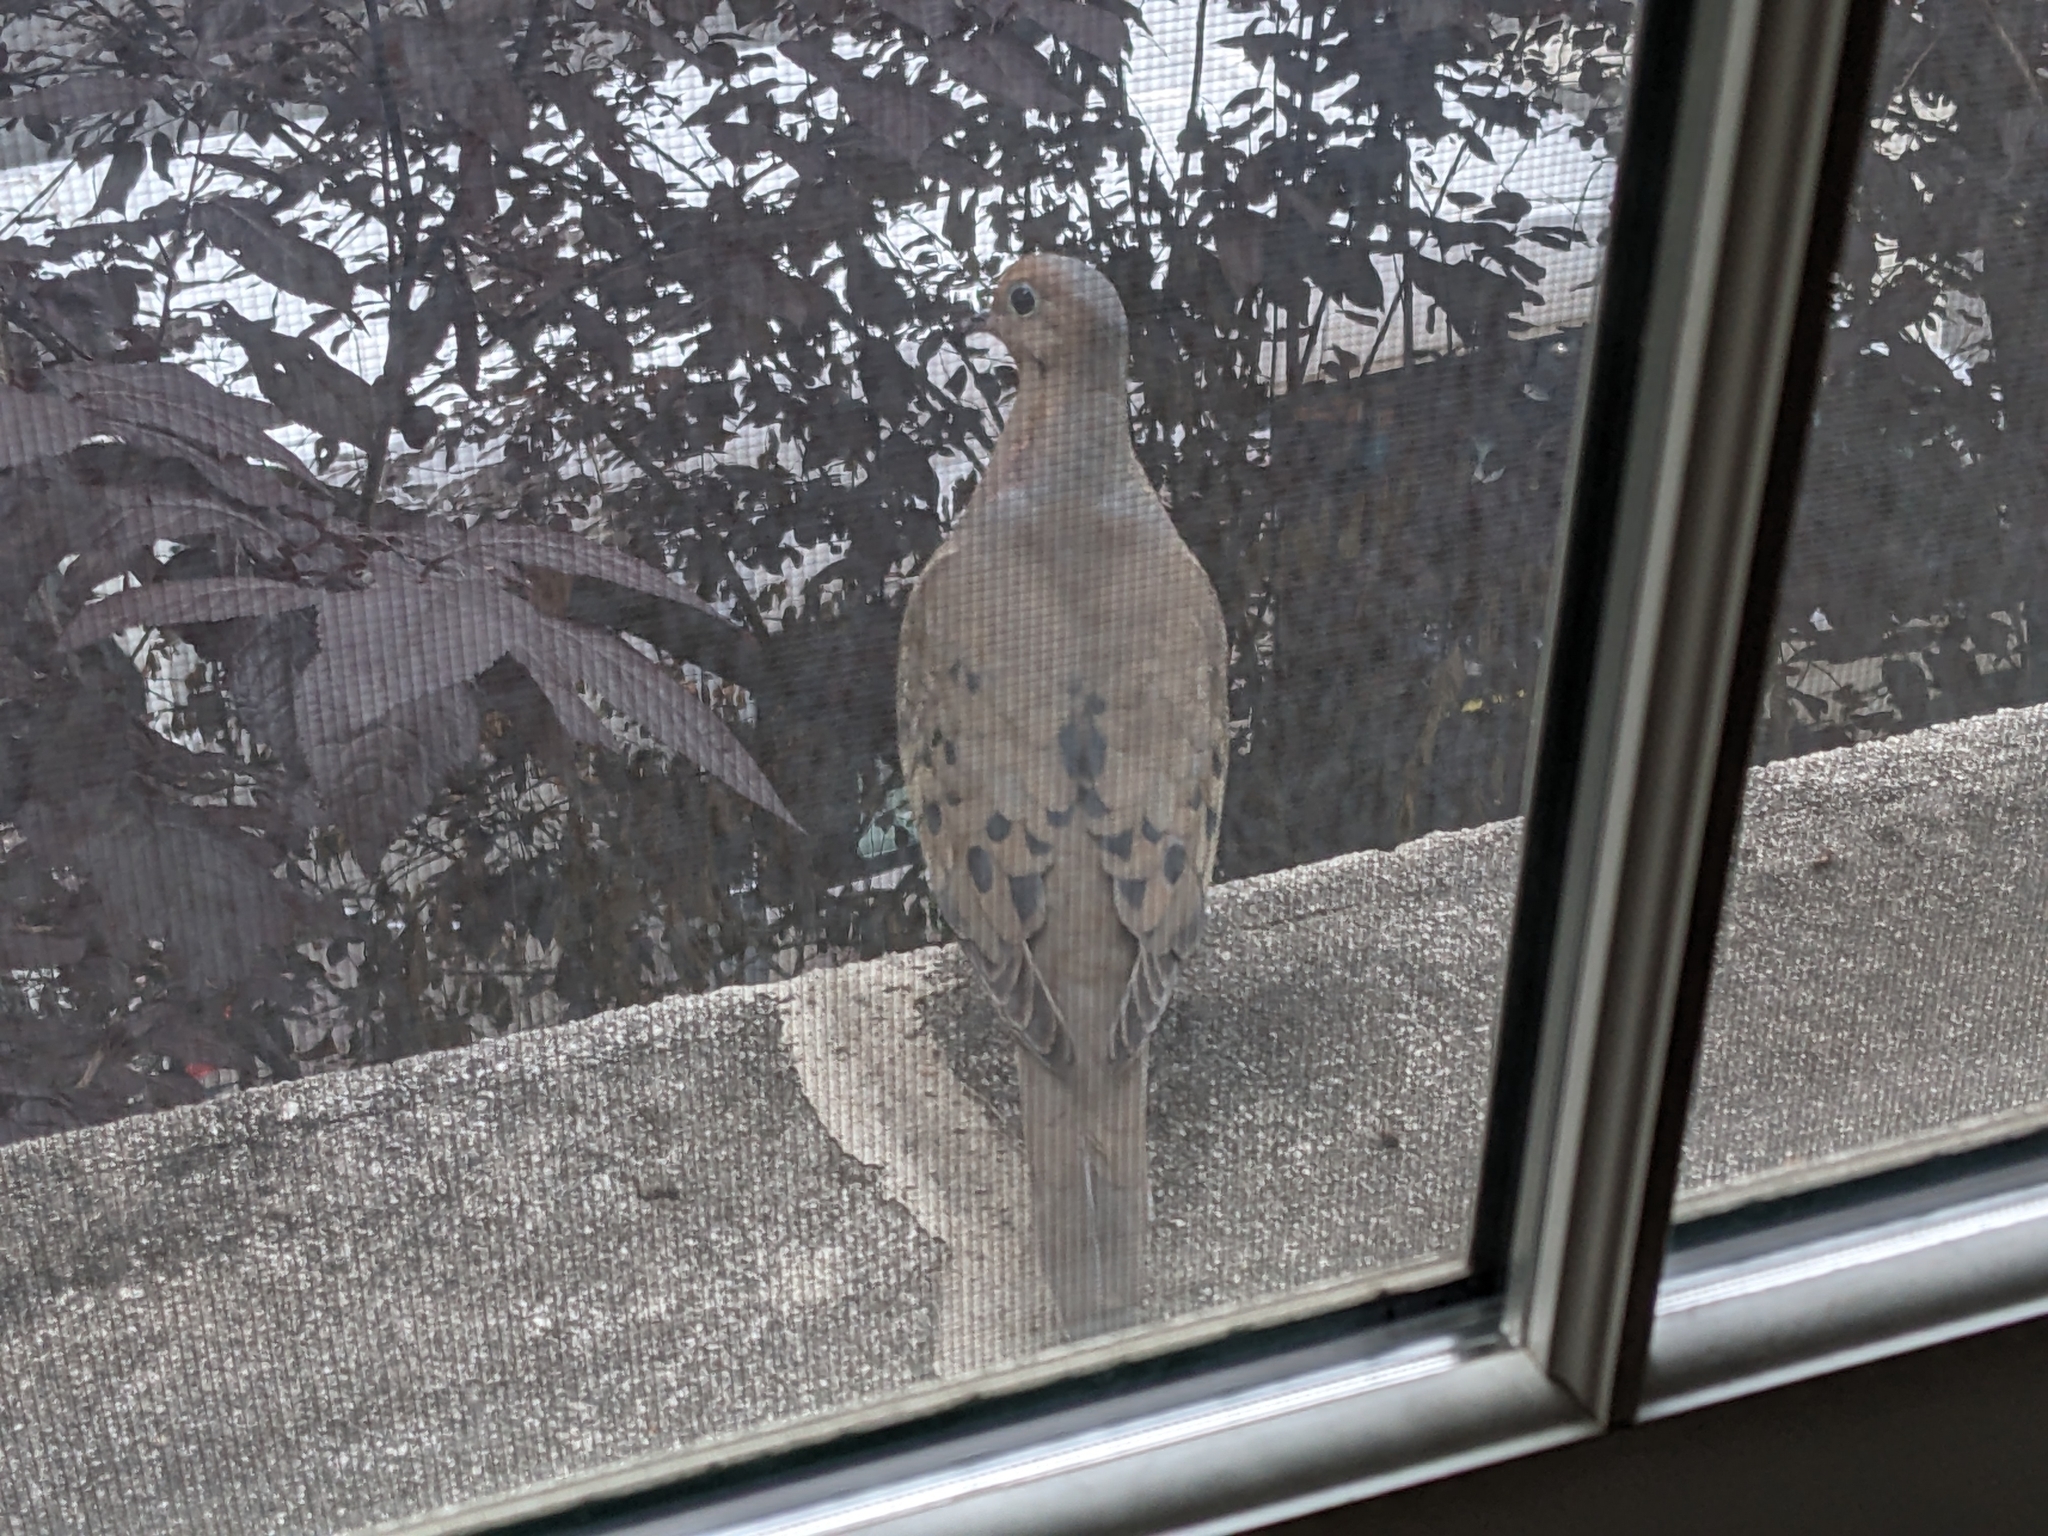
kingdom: Animalia
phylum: Chordata
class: Aves
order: Columbiformes
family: Columbidae
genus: Zenaida
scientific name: Zenaida macroura
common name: Mourning dove
